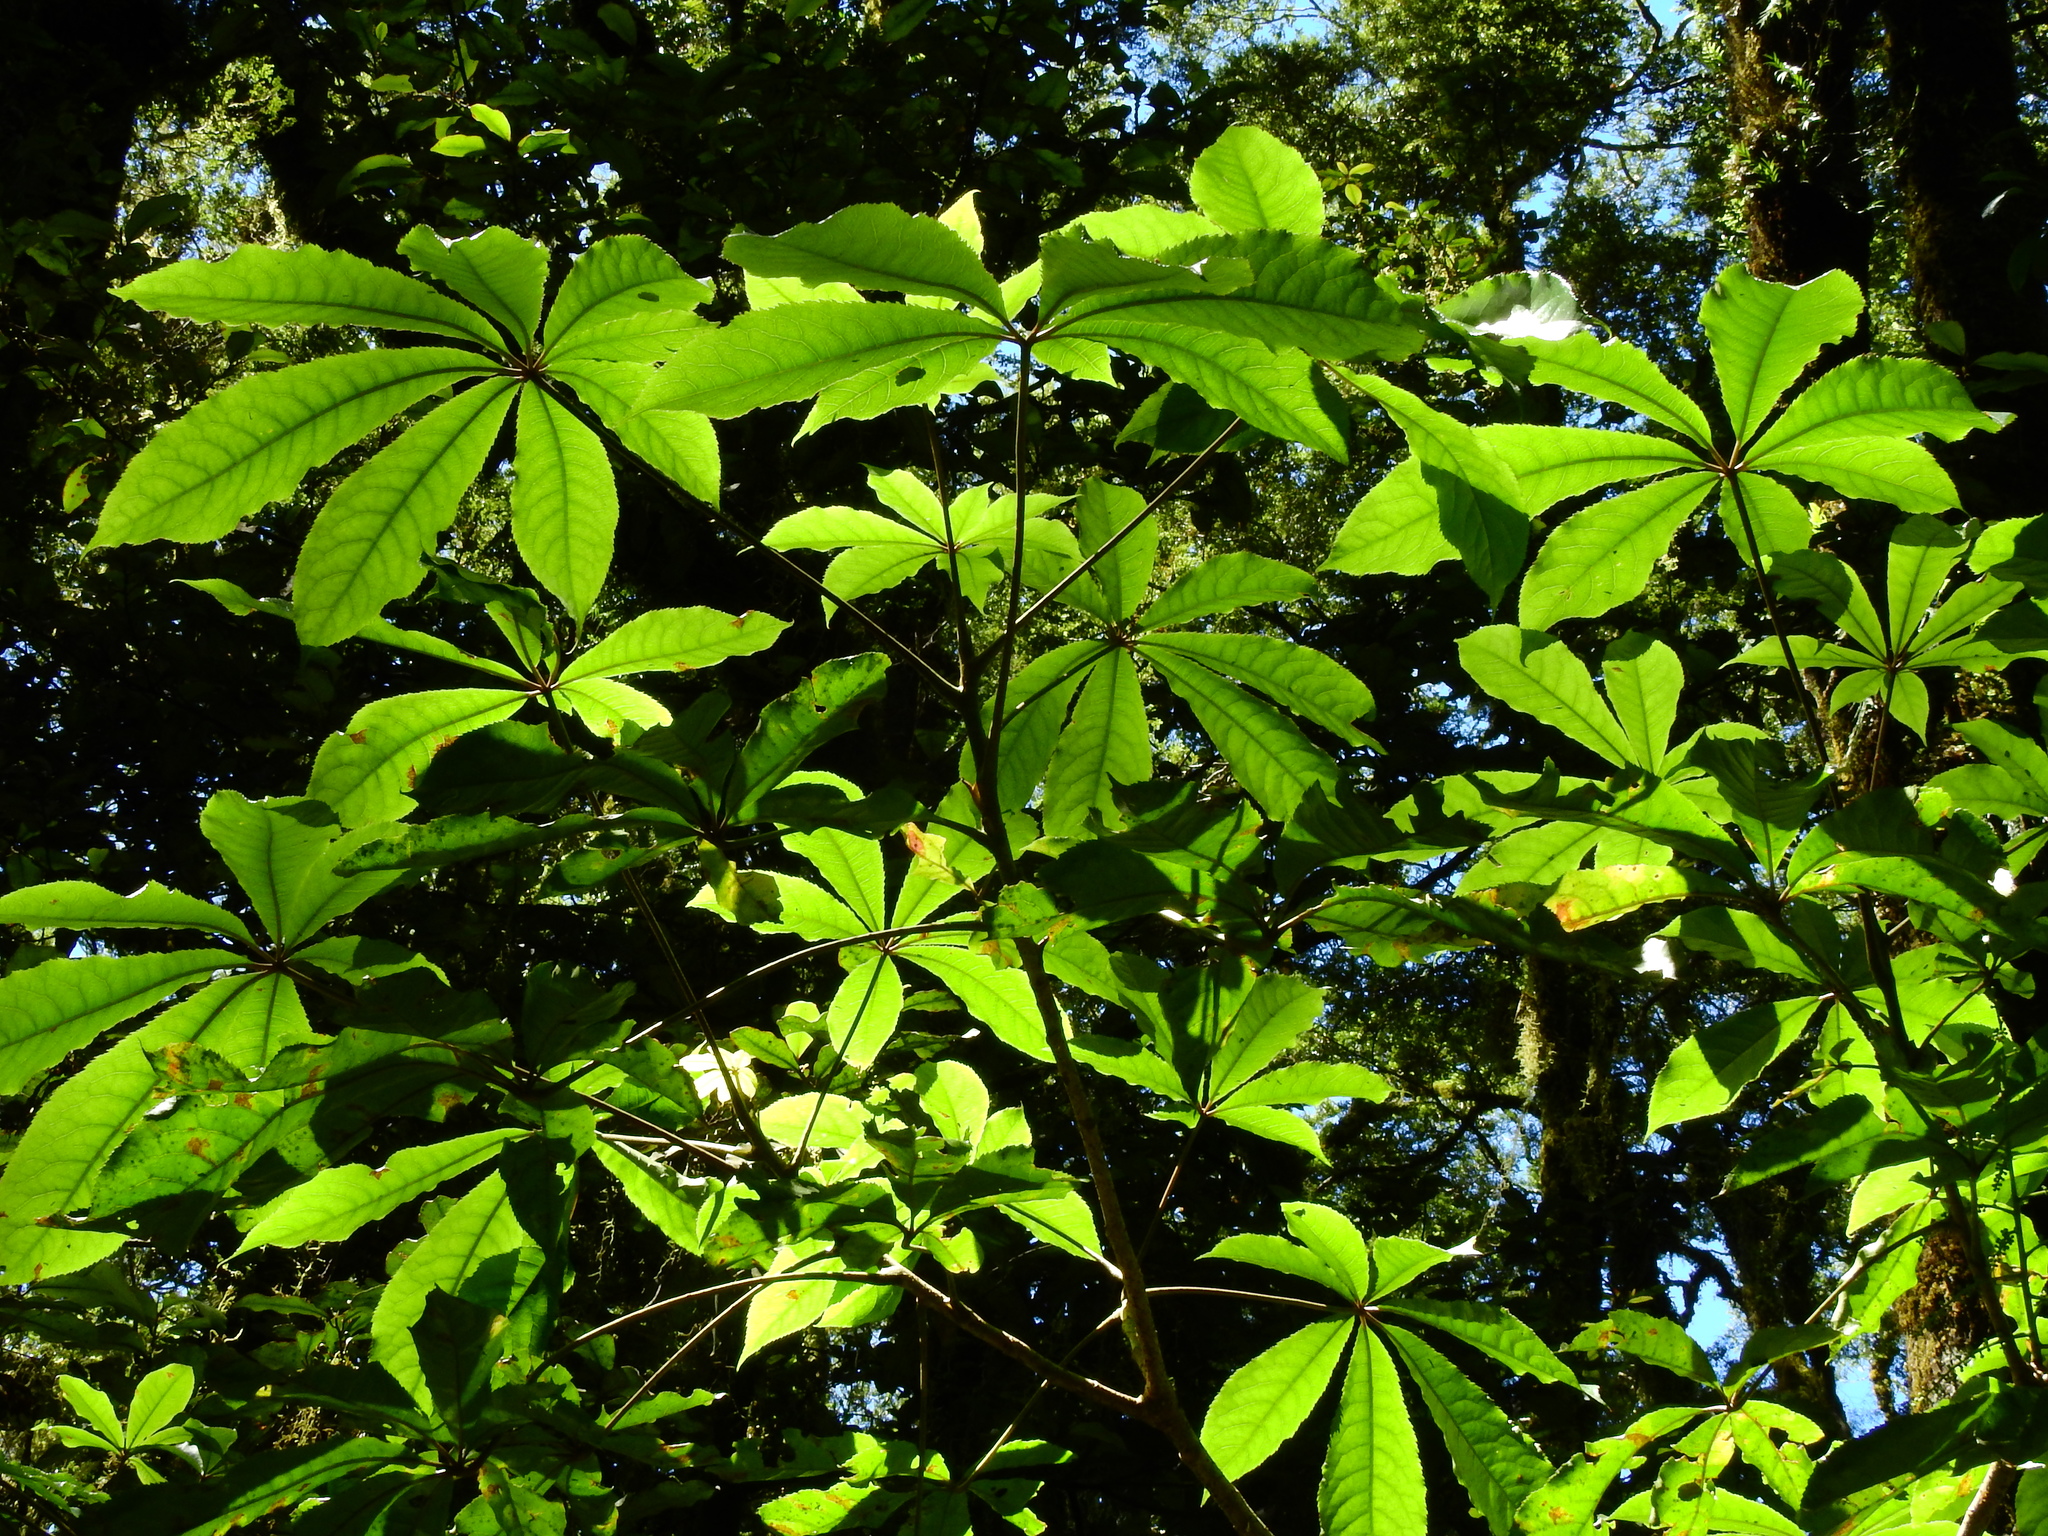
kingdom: Plantae
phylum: Tracheophyta
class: Magnoliopsida
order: Apiales
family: Araliaceae
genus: Schefflera
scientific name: Schefflera digitata
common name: Pate
